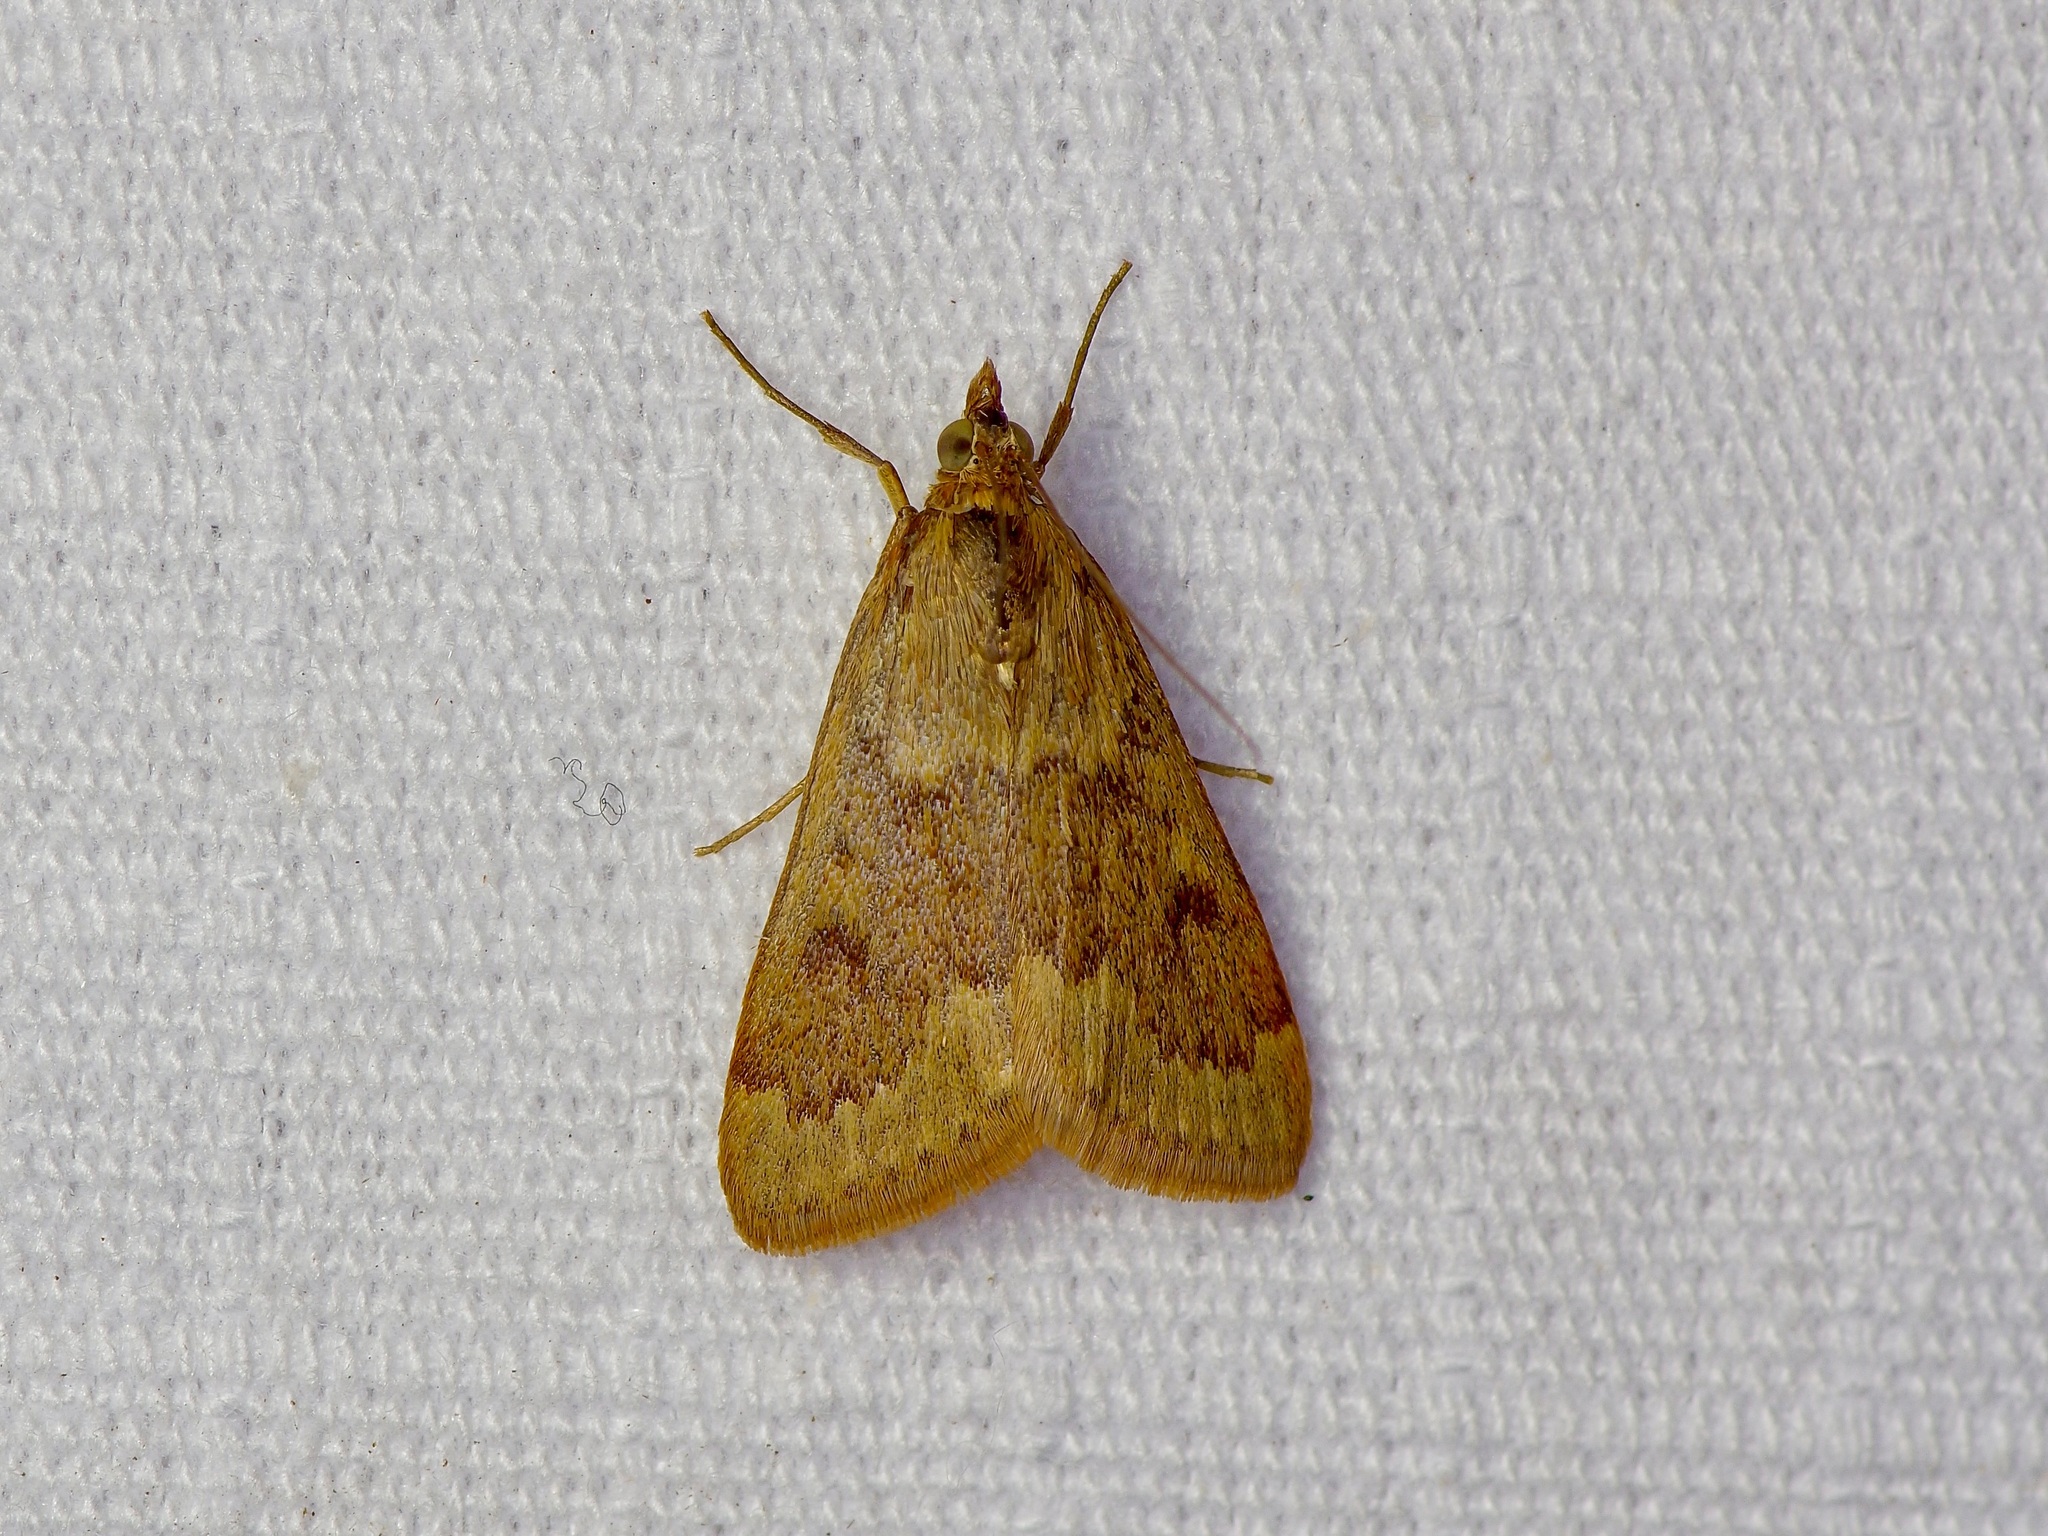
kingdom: Animalia
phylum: Arthropoda
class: Insecta
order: Lepidoptera
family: Crambidae
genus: Achyra
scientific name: Achyra rantalis
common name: Garden webworm
